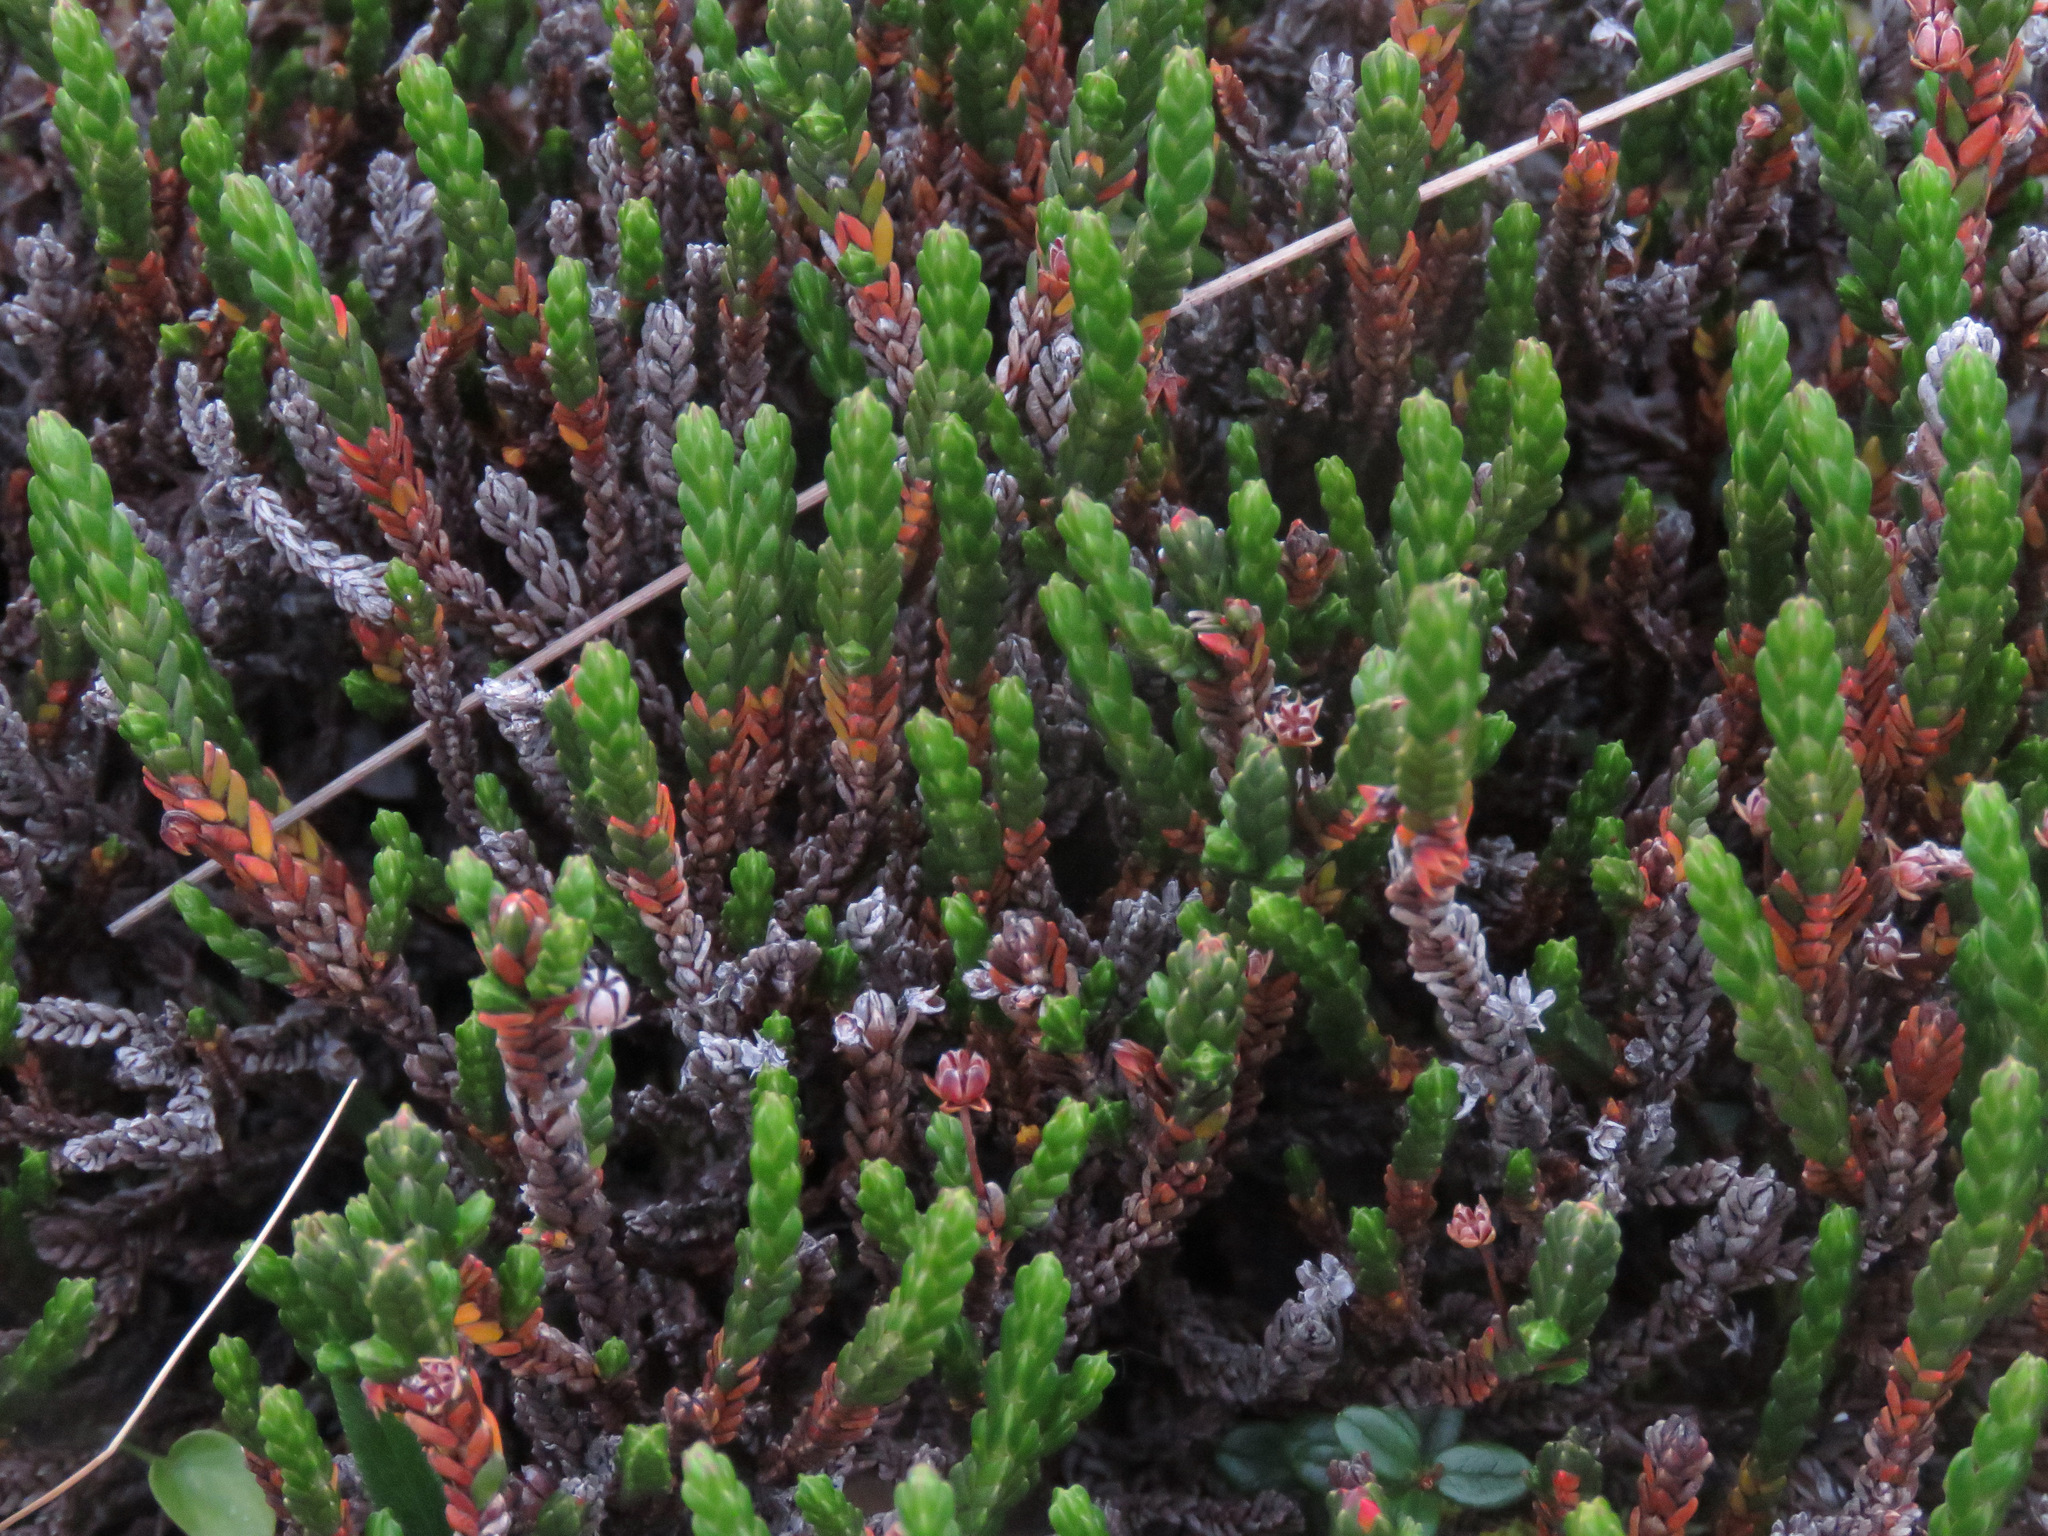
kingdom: Plantae
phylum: Tracheophyta
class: Magnoliopsida
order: Ericales
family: Ericaceae
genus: Cassiope
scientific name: Cassiope tetragona
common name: Arctic bell heather
